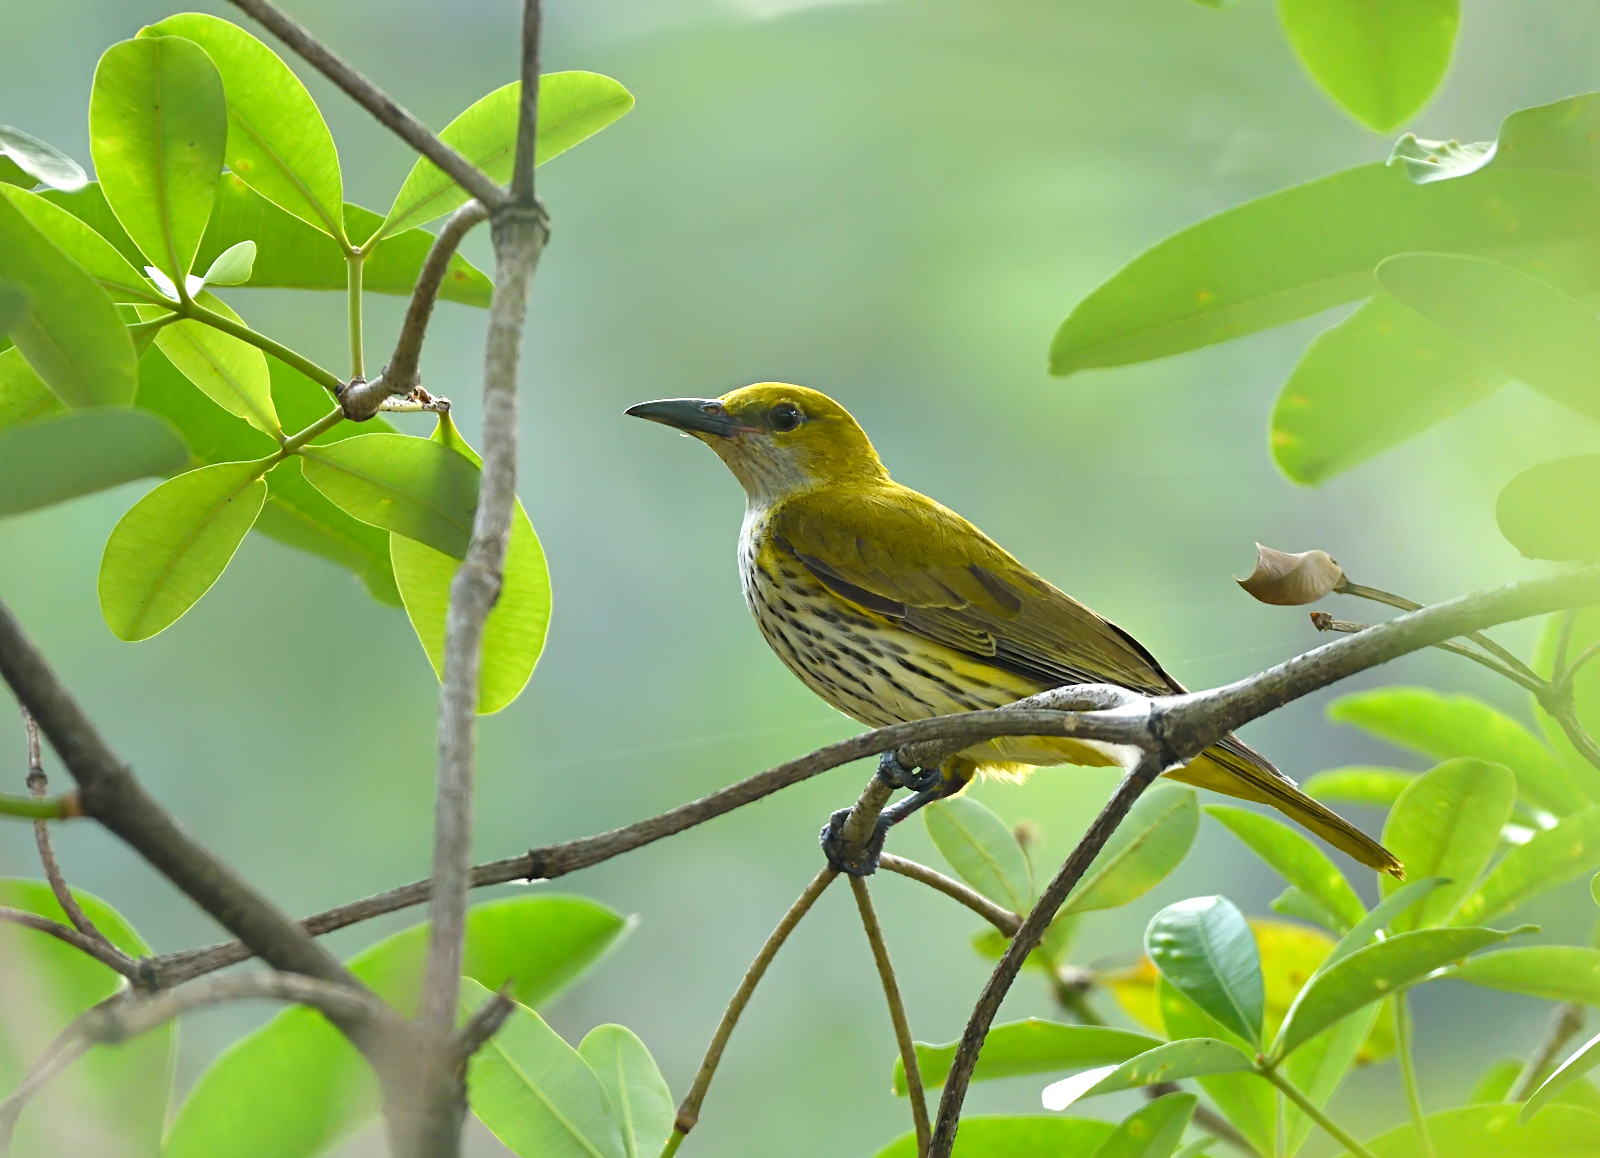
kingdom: Animalia
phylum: Chordata
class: Aves
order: Passeriformes
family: Oriolidae
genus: Oriolus
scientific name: Oriolus kundoo
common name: Indian golden oriole
